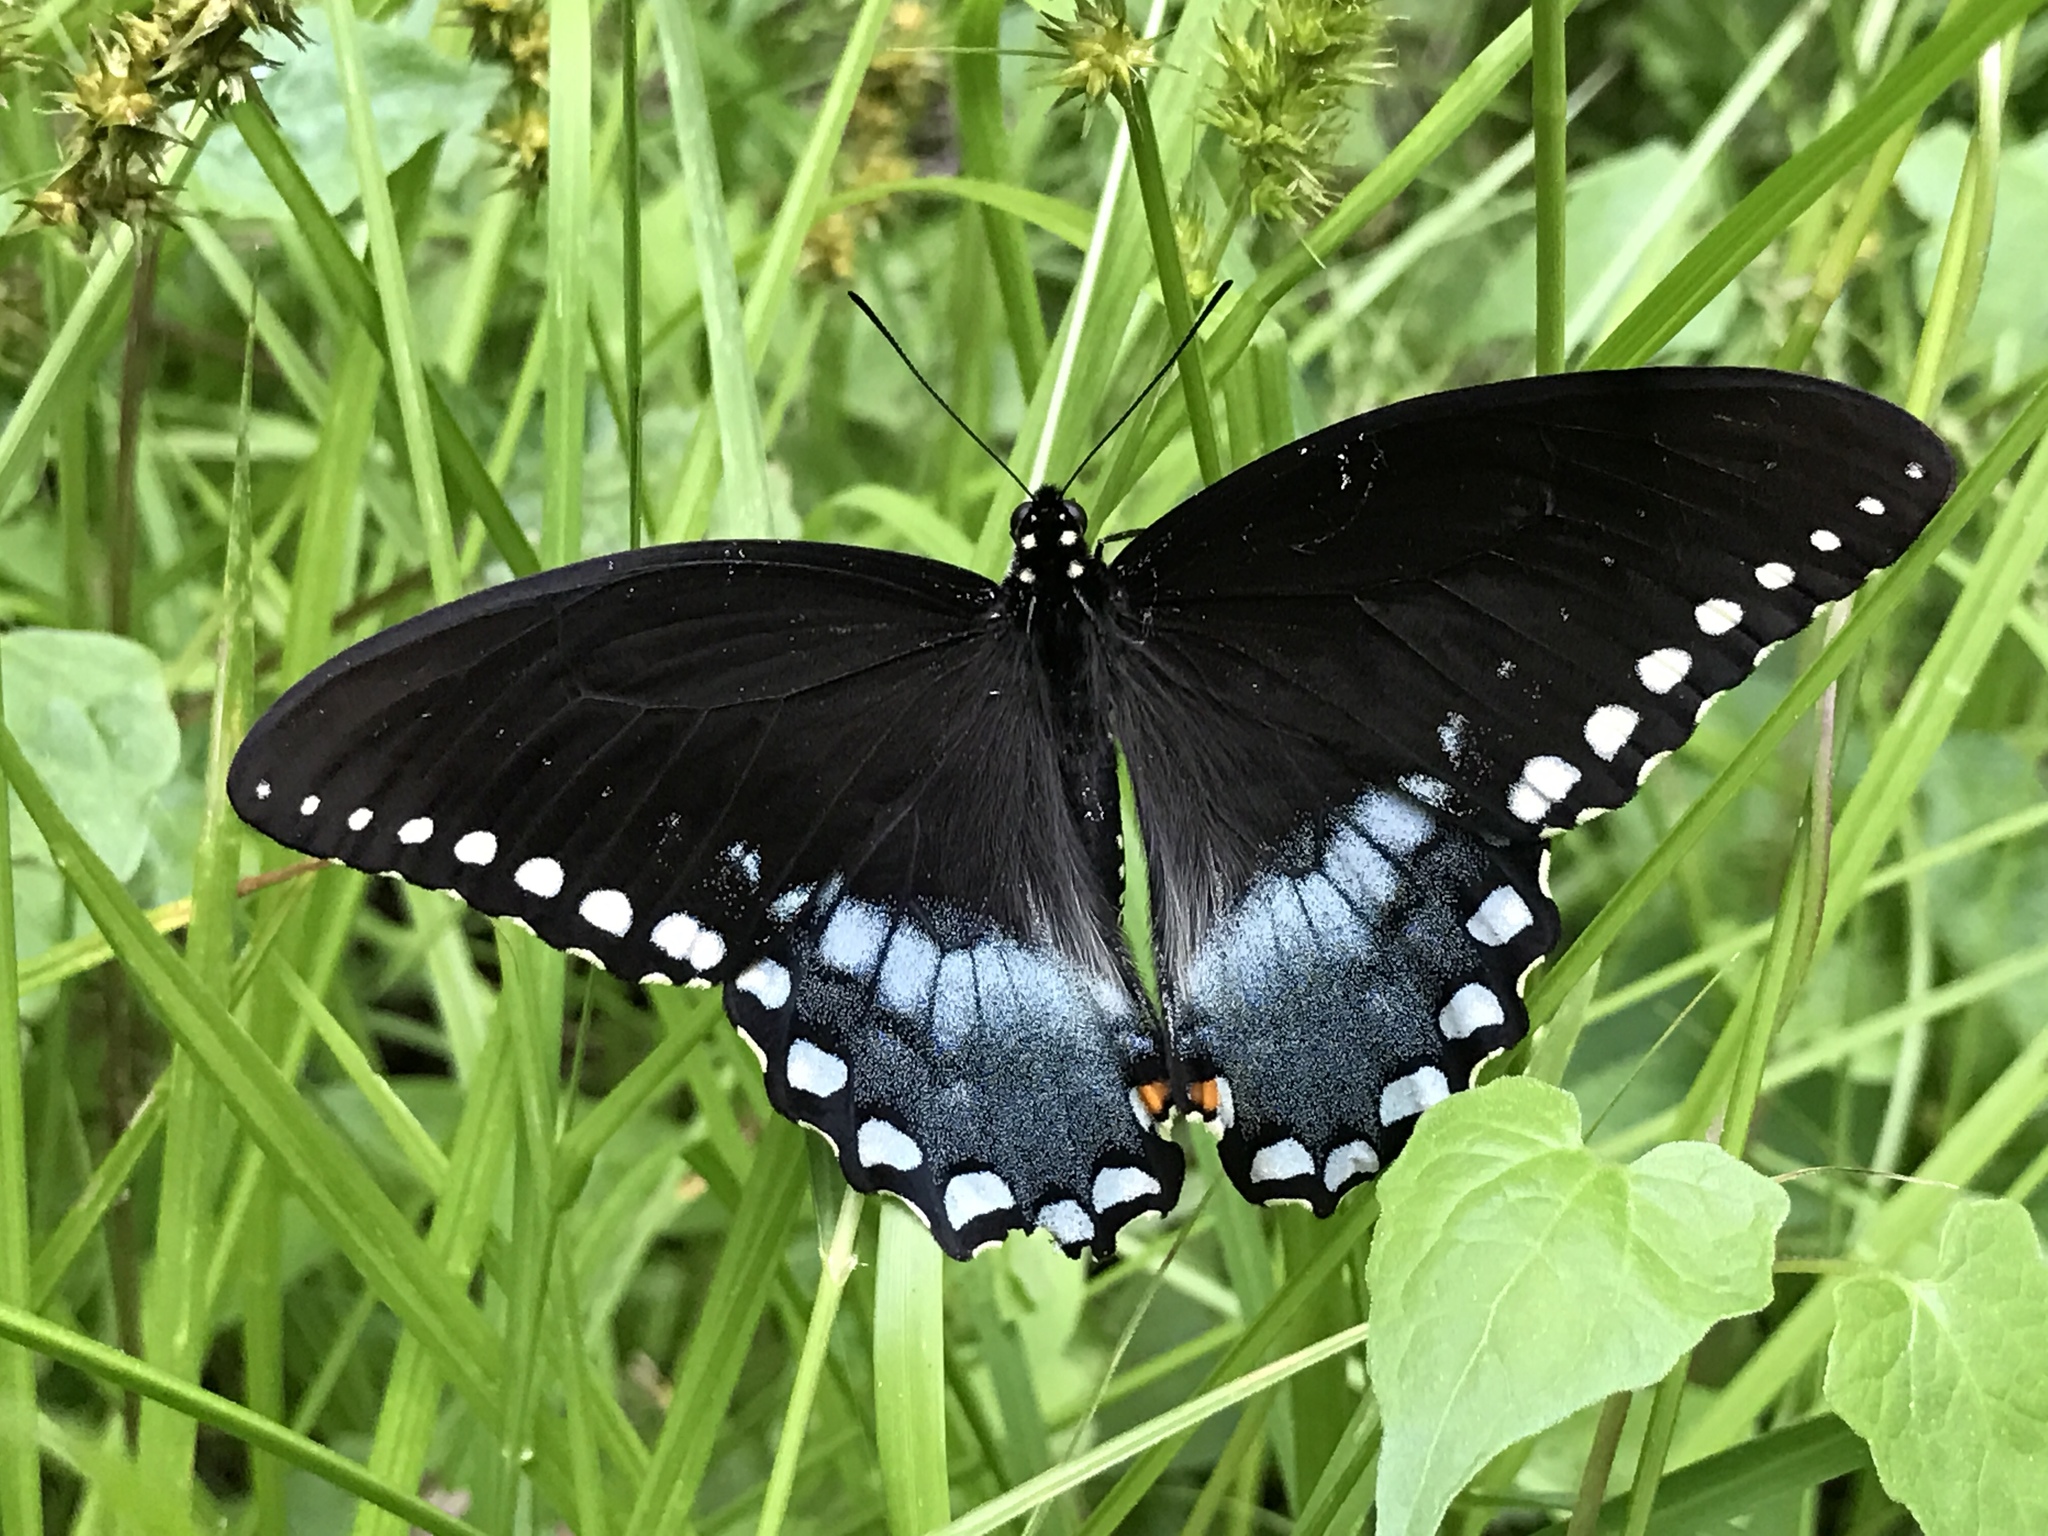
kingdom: Animalia
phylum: Arthropoda
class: Insecta
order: Lepidoptera
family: Papilionidae
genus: Papilio
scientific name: Papilio troilus
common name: Spicebush swallowtail
